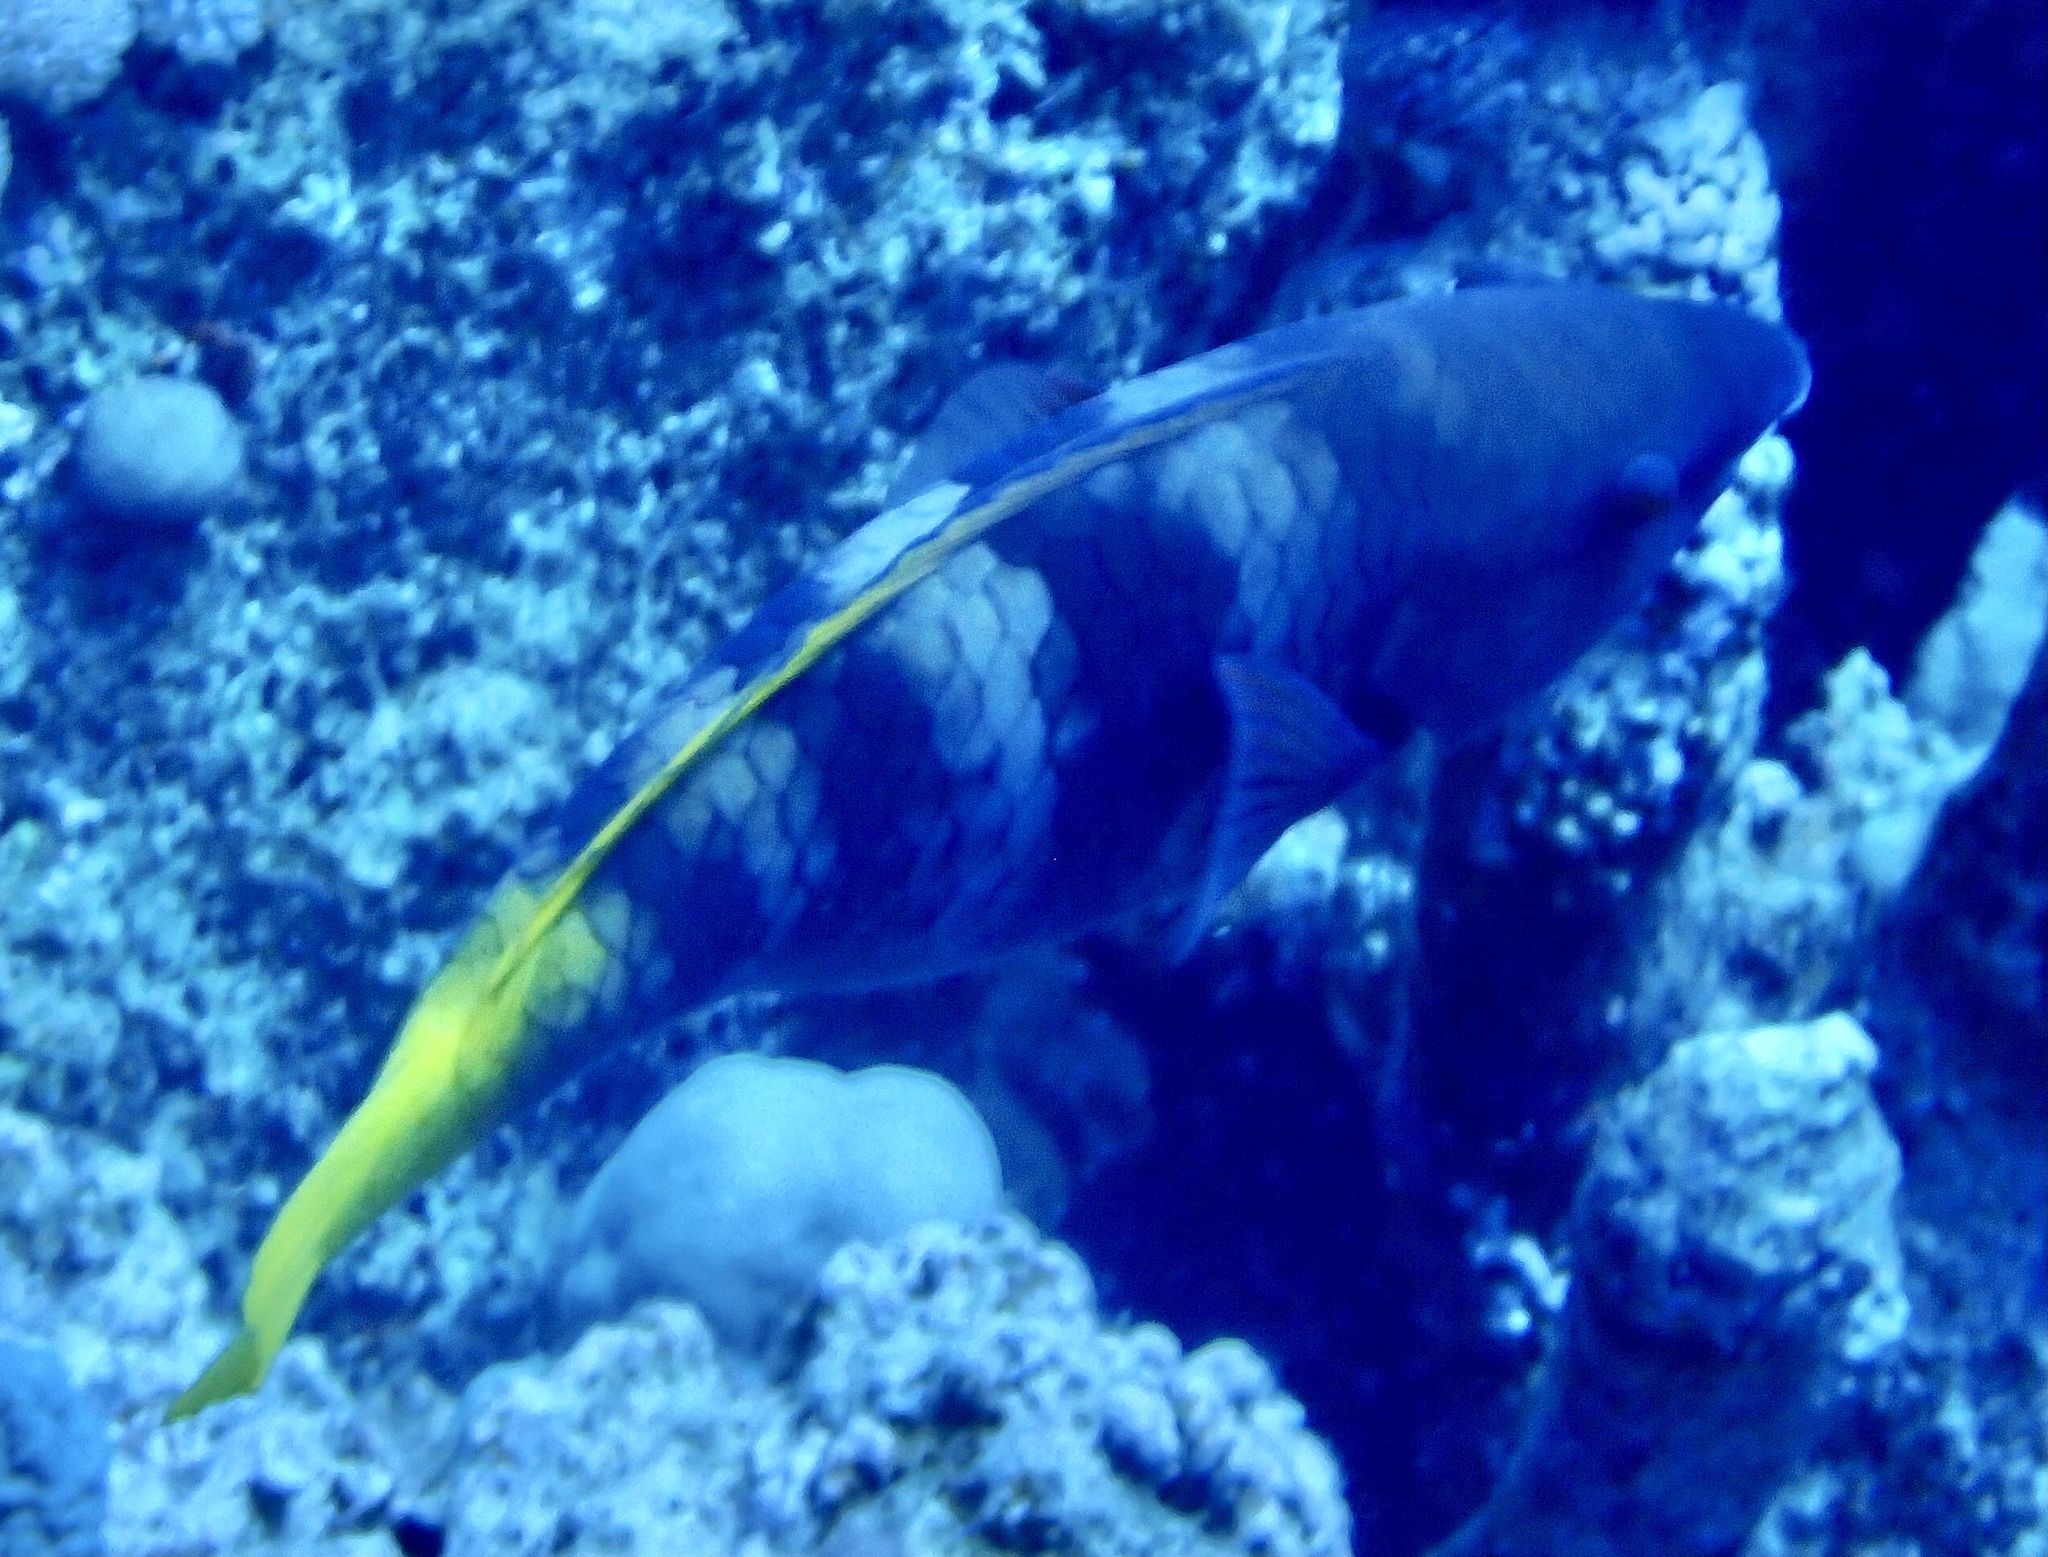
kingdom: Animalia
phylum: Chordata
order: Perciformes
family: Scaridae
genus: Scarus
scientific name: Scarus ferrugineus
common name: Rusty parrotfish
